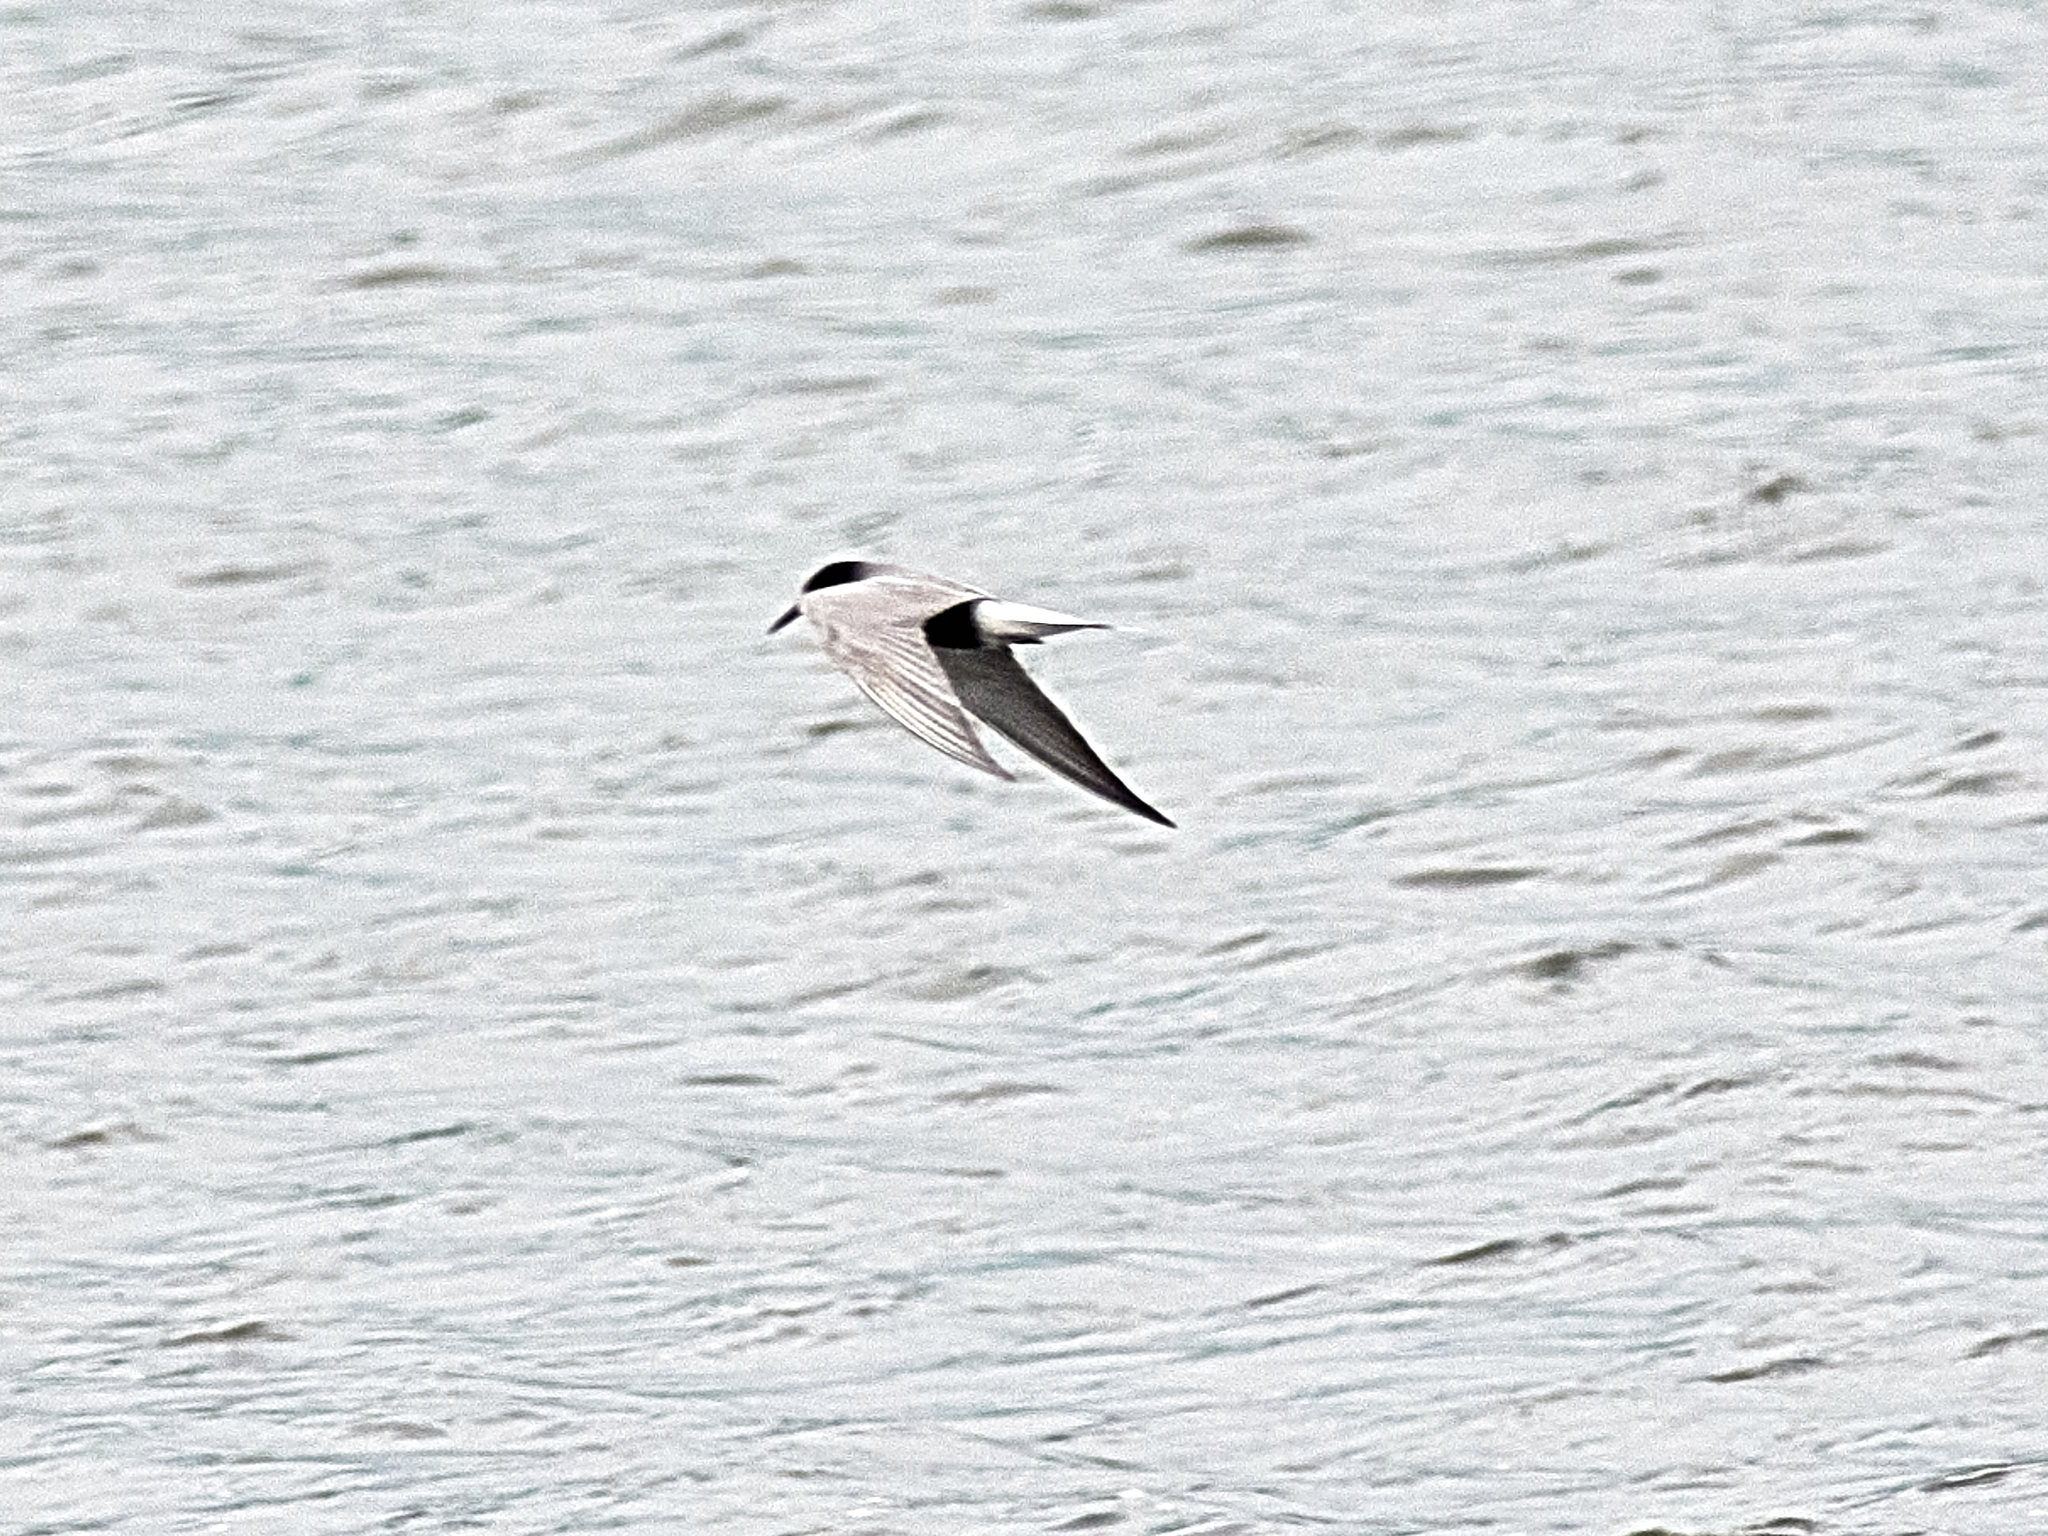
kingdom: Animalia
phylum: Chordata
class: Aves
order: Charadriiformes
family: Laridae
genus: Chlidonias
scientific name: Chlidonias niger
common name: Black tern
